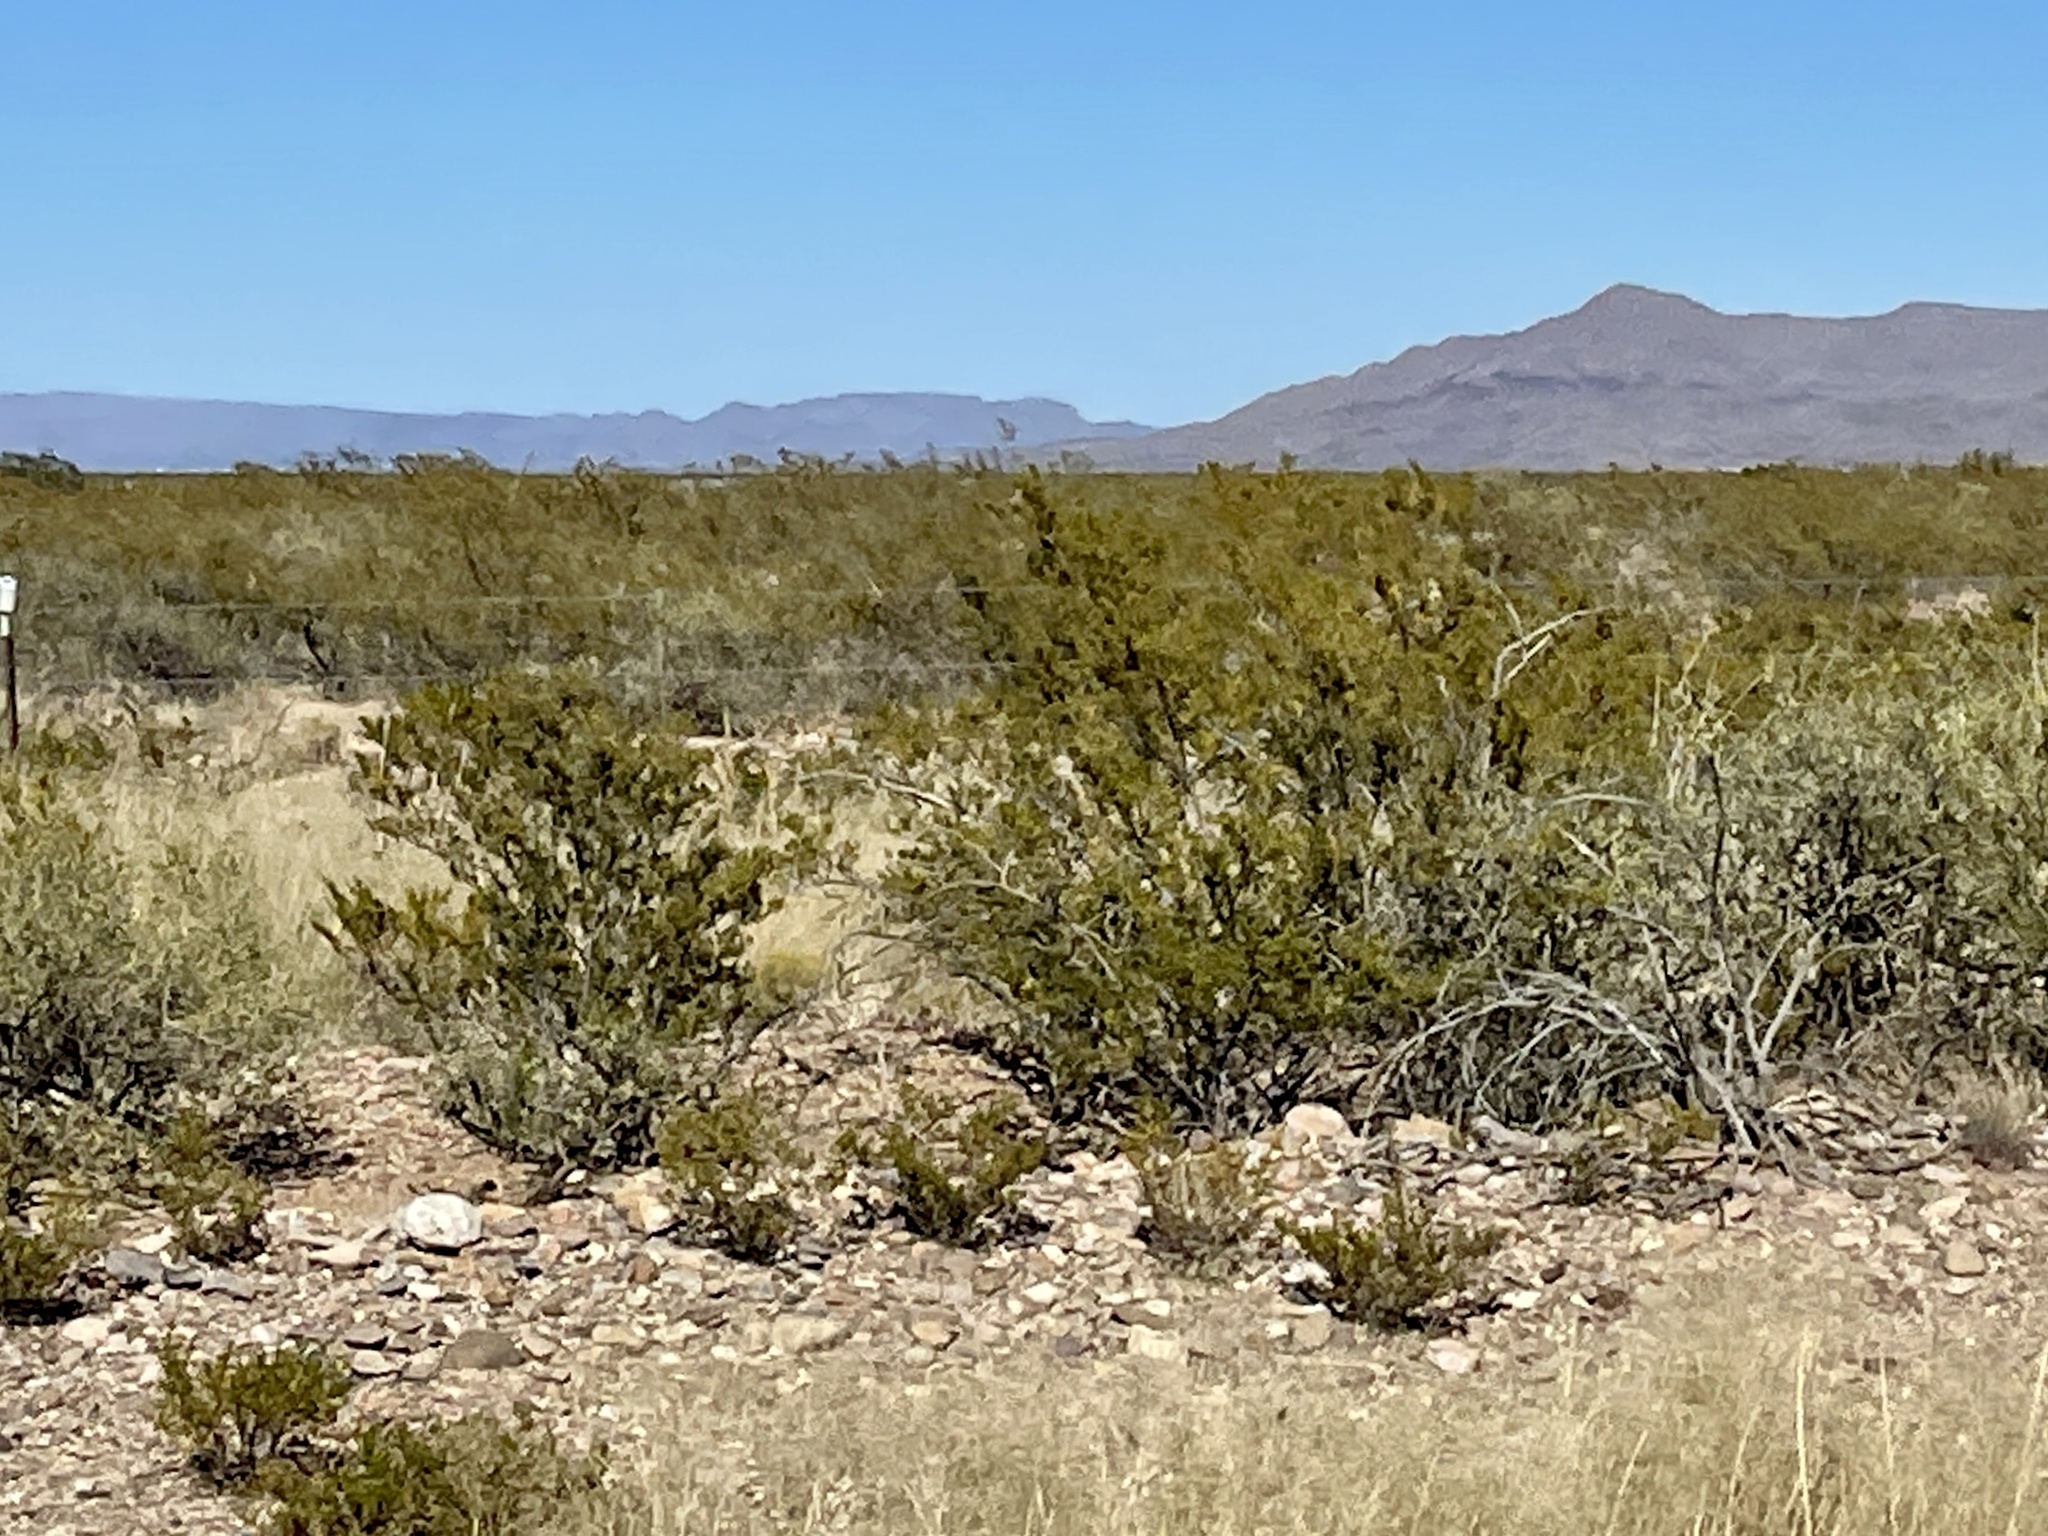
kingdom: Plantae
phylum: Tracheophyta
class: Magnoliopsida
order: Zygophyllales
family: Zygophyllaceae
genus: Larrea
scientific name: Larrea tridentata
